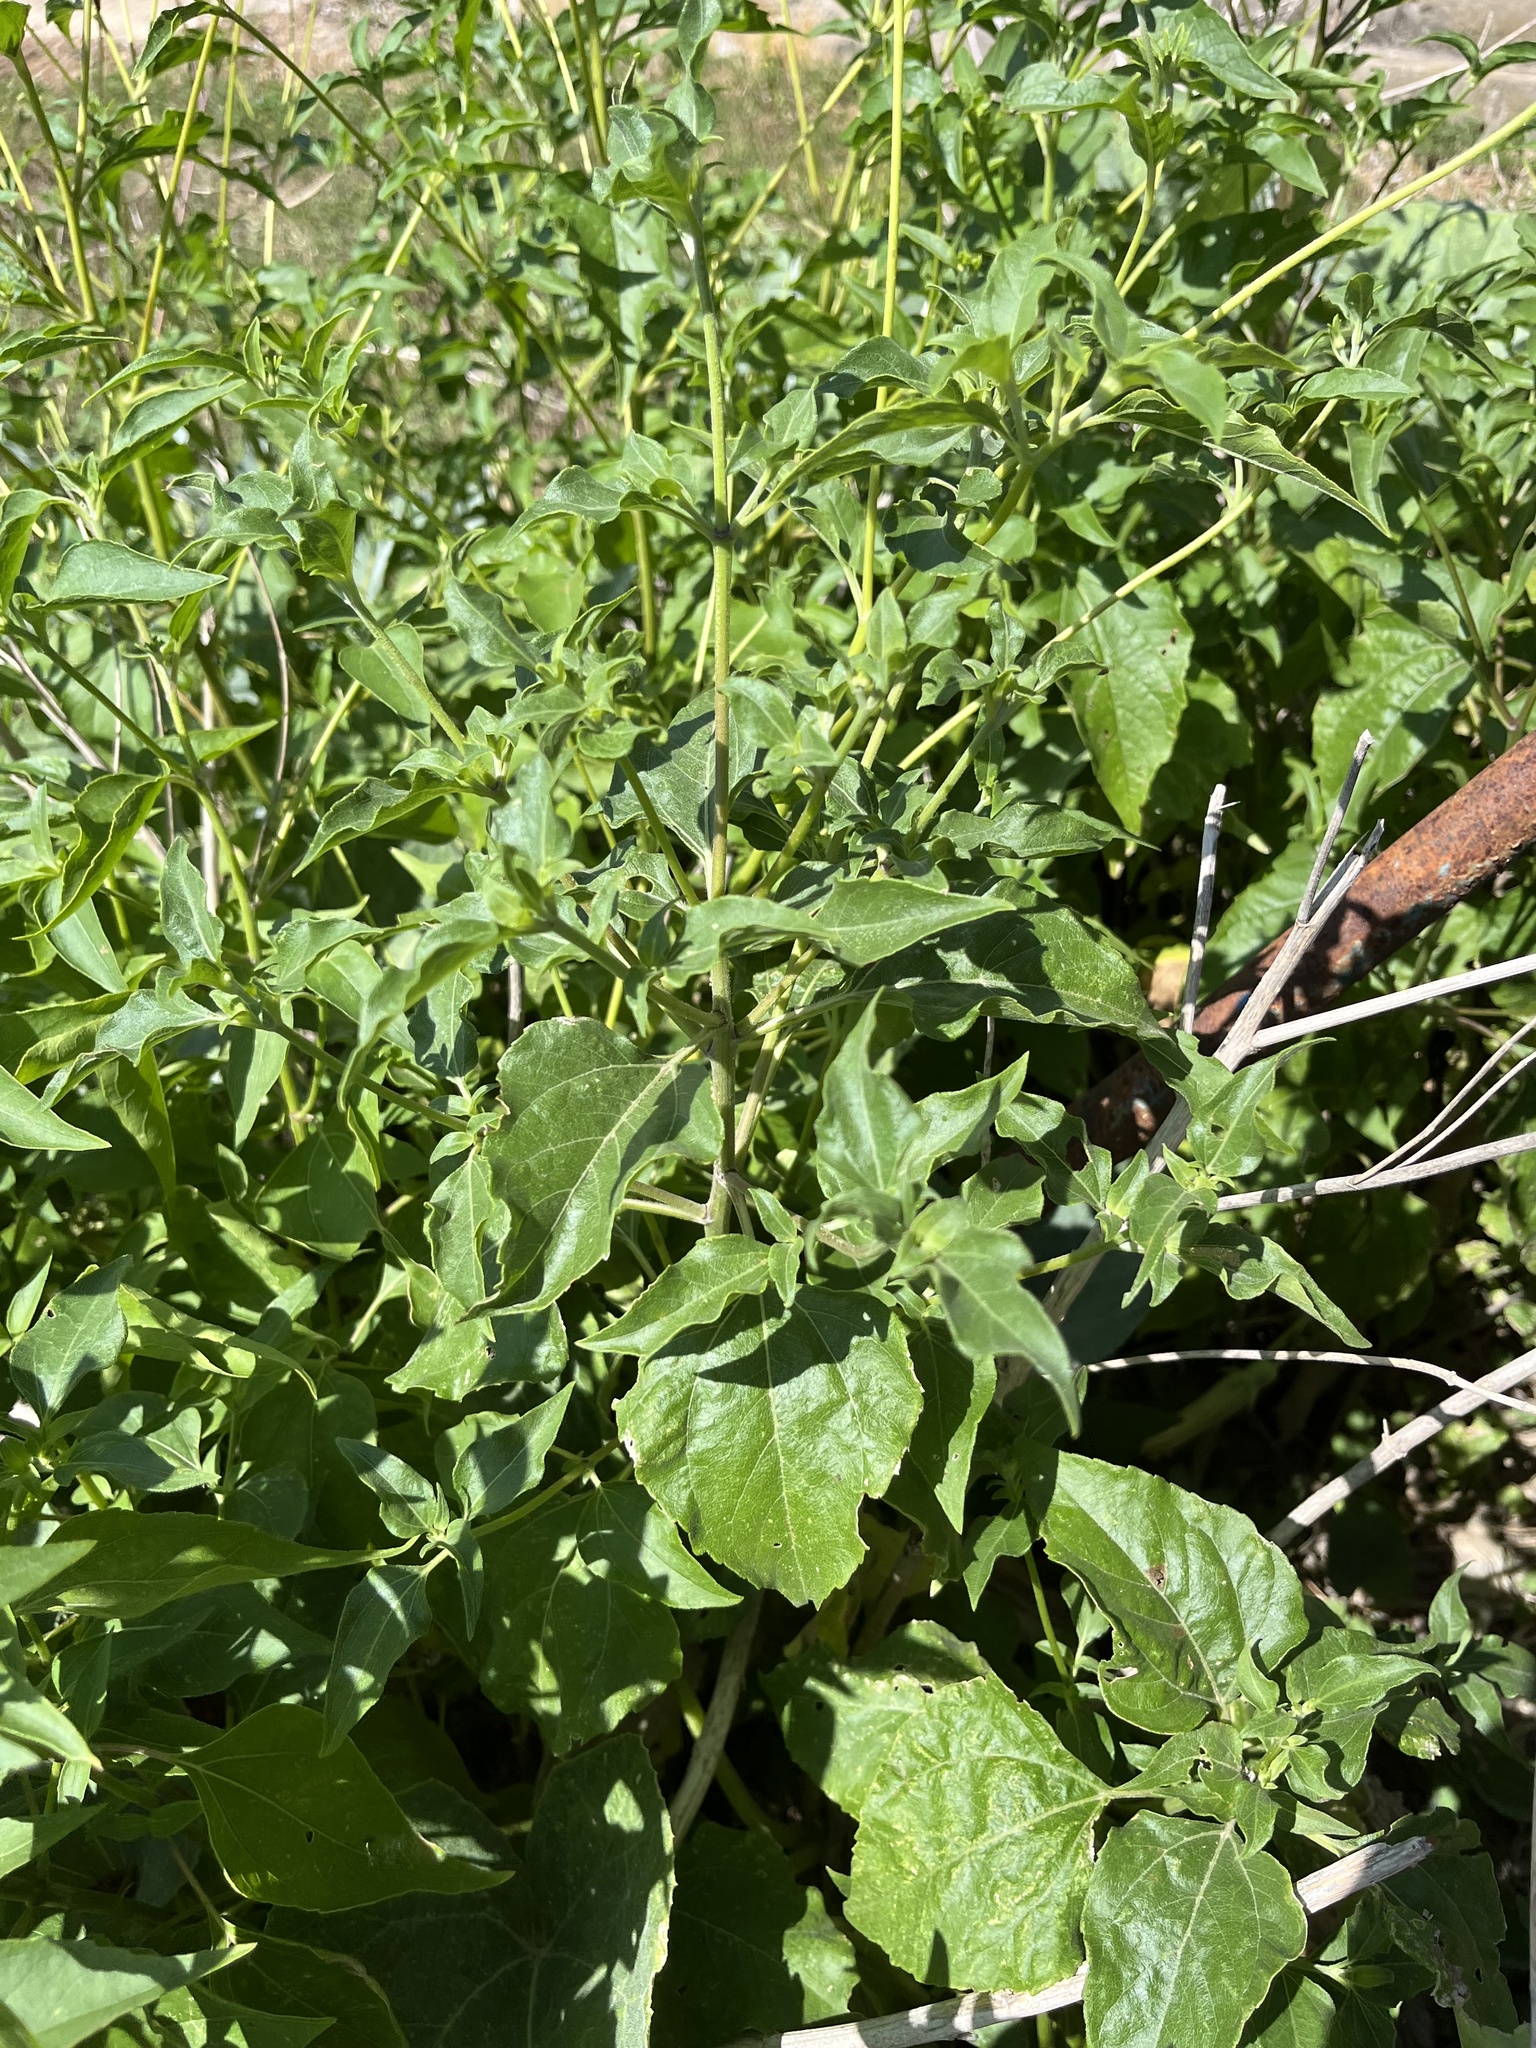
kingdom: Plantae
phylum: Tracheophyta
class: Magnoliopsida
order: Asterales
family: Asteraceae
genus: Viguiera
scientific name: Viguiera dentata
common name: Toothleaf
